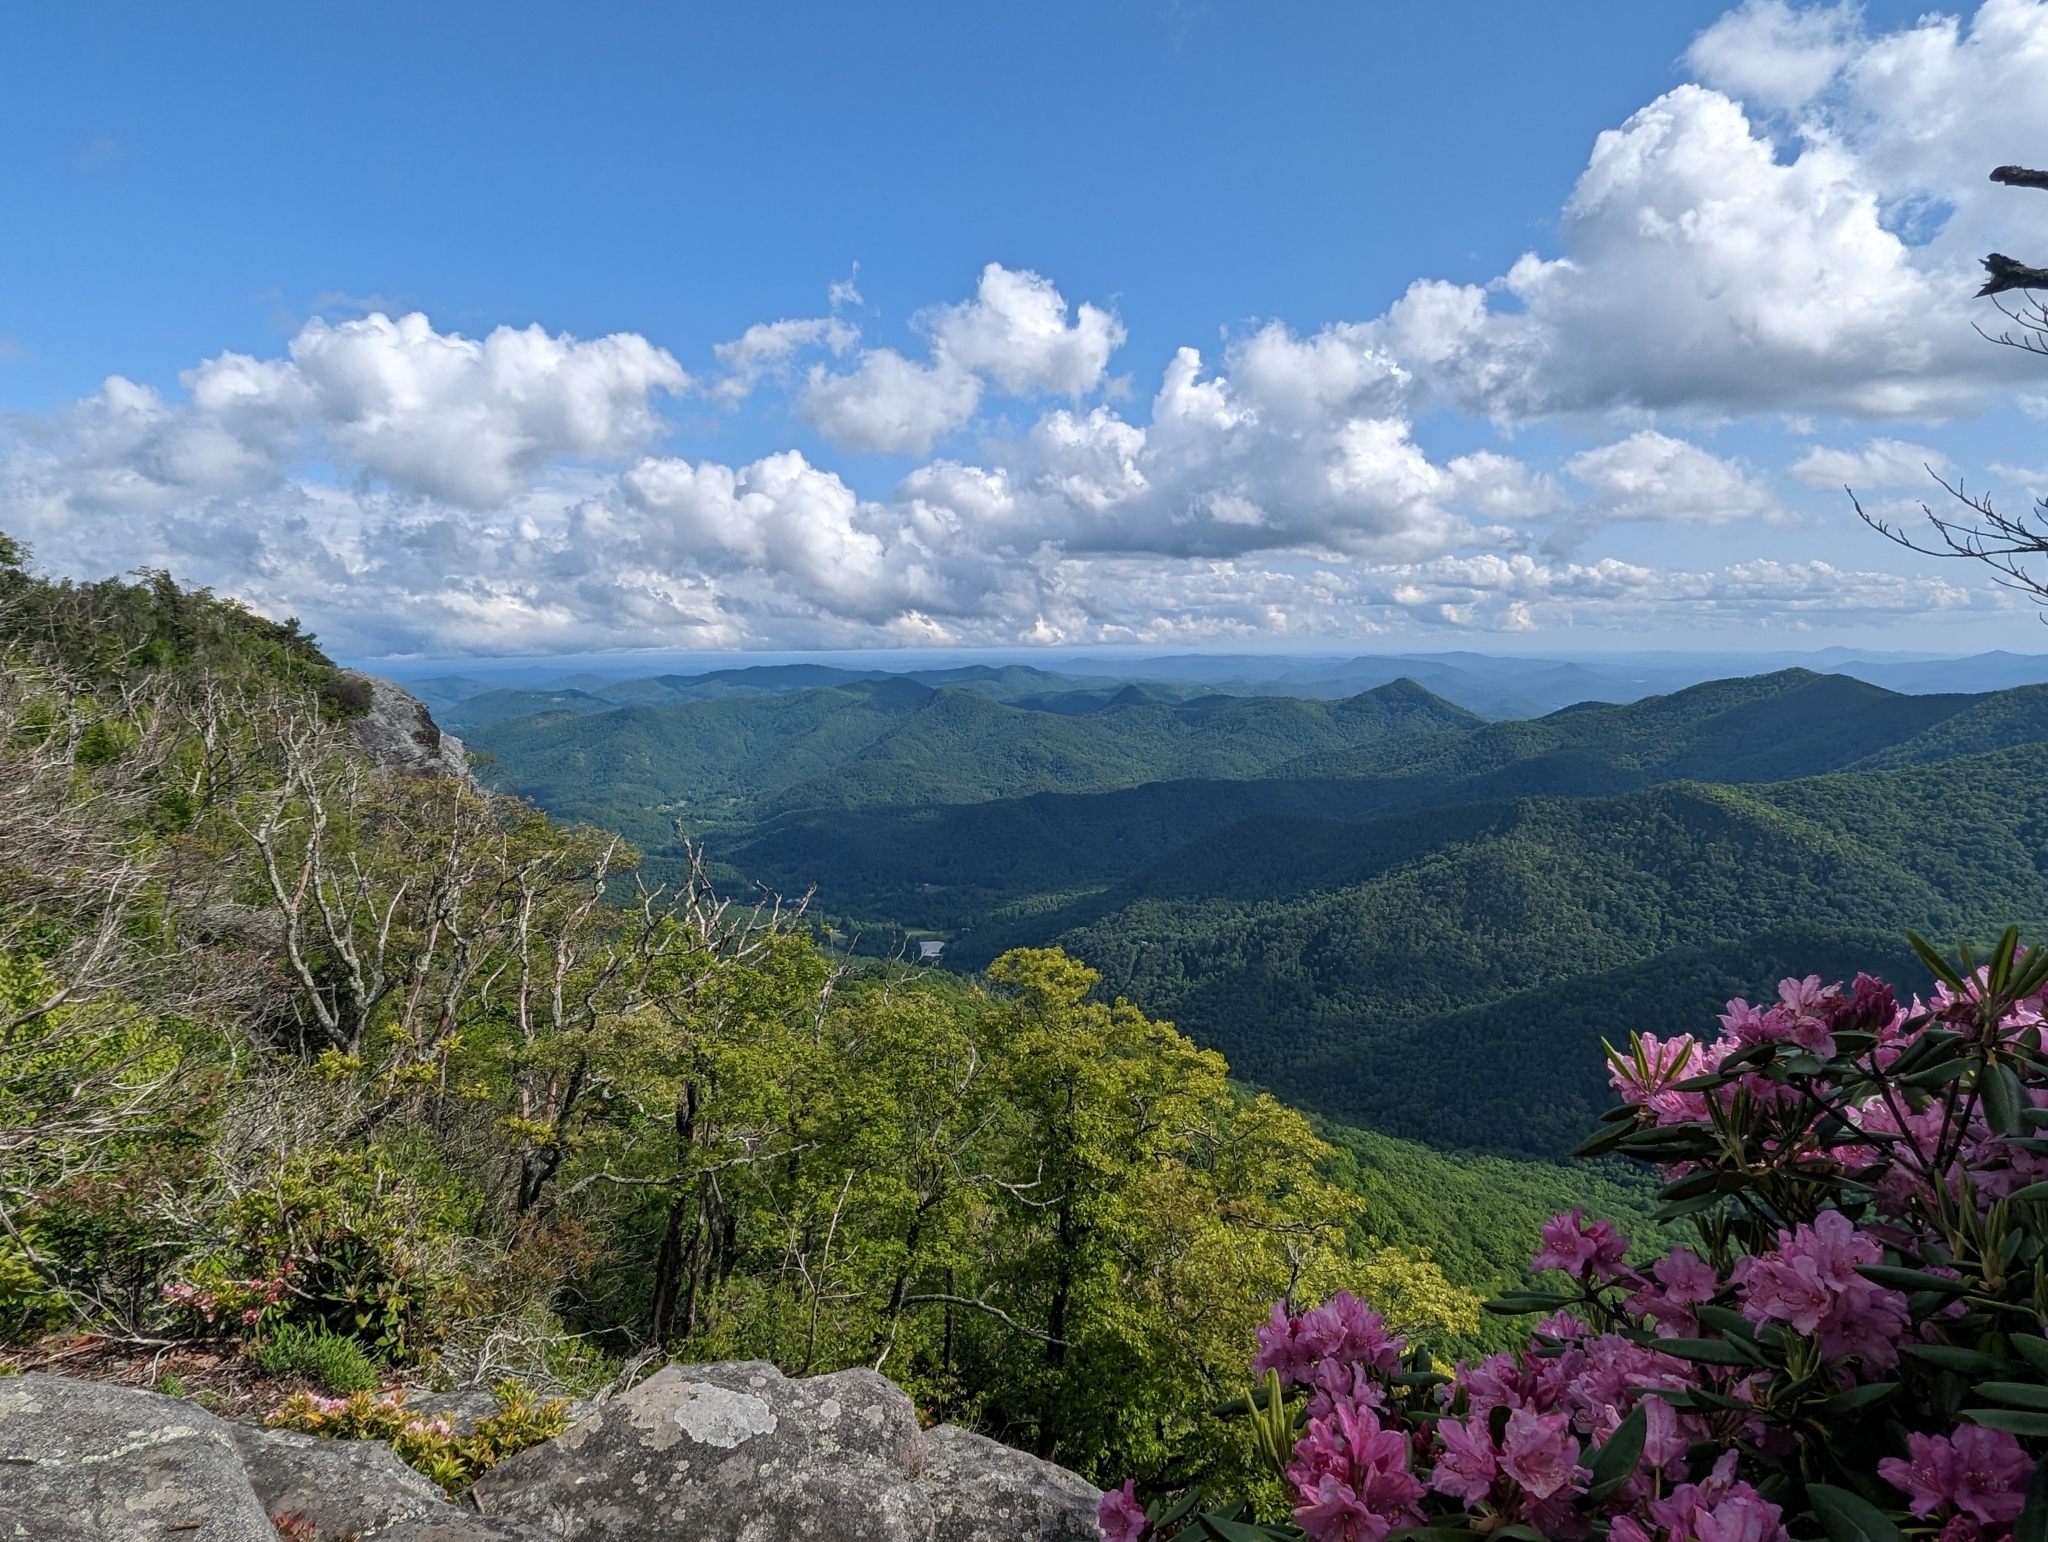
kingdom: Plantae
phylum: Tracheophyta
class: Magnoliopsida
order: Ericales
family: Ericaceae
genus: Rhododendron
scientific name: Rhododendron catawbiense
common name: Catawba rhododendron
